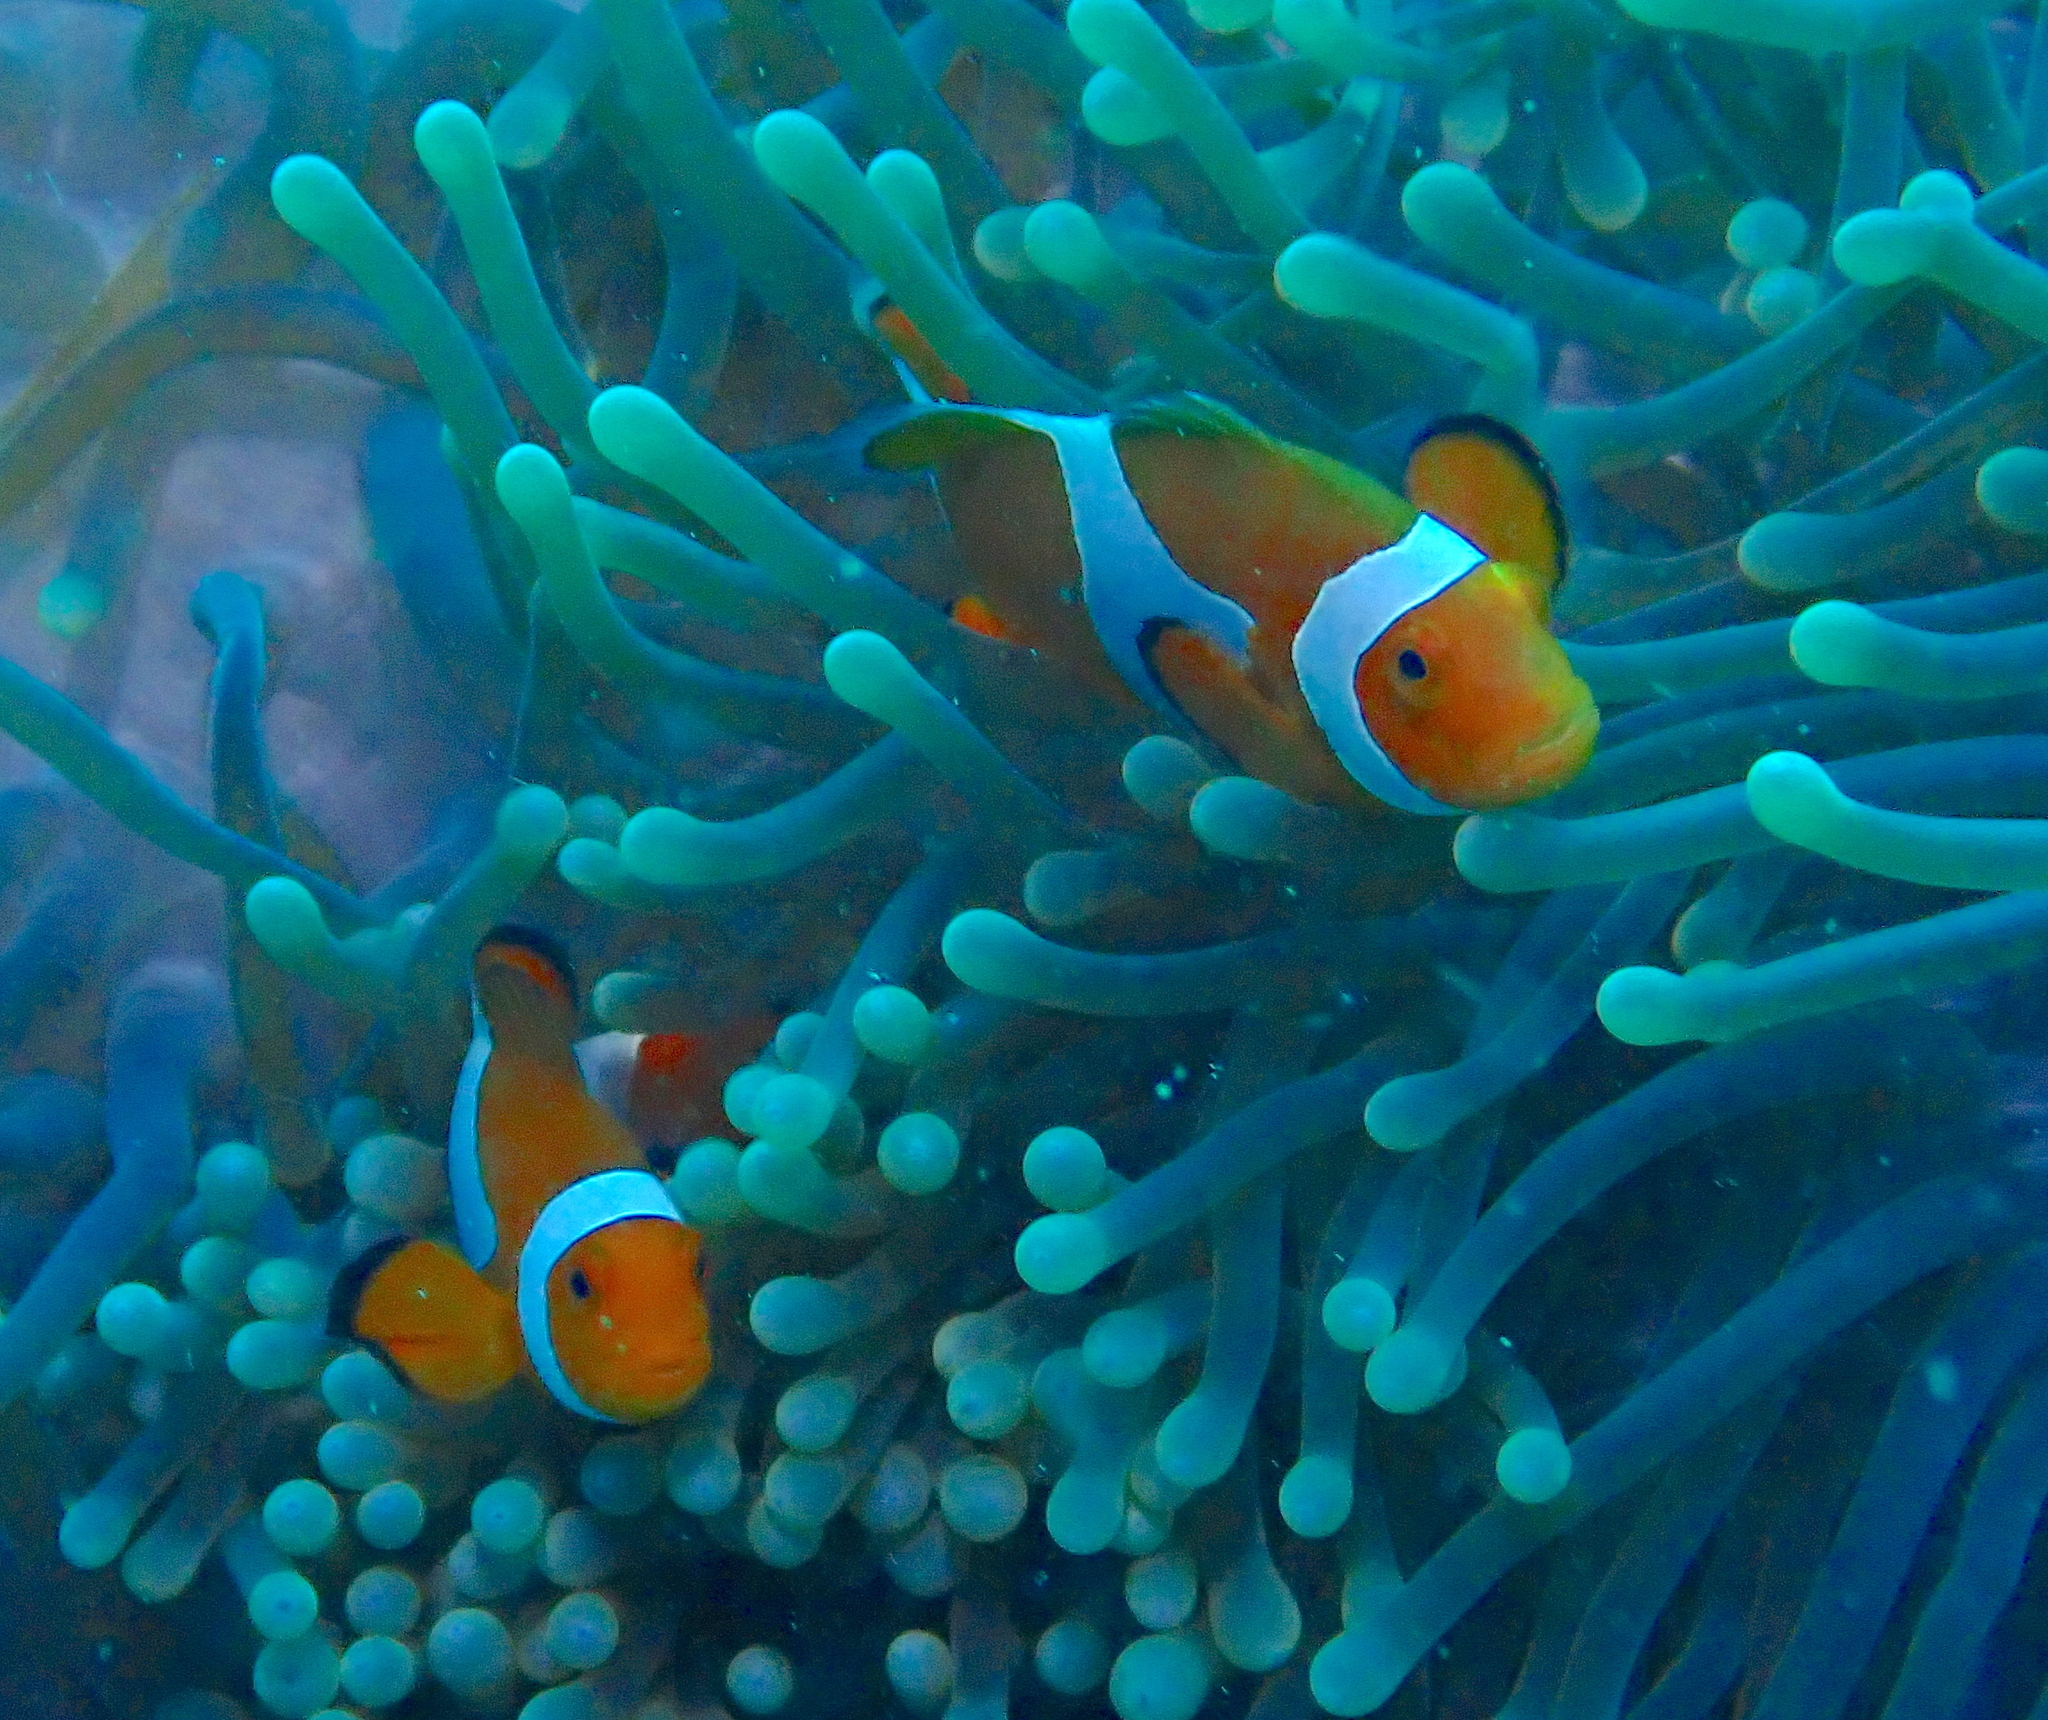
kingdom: Animalia
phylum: Chordata
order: Perciformes
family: Pomacentridae
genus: Amphiprion
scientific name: Amphiprion ocellaris
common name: Clown anemonefish
